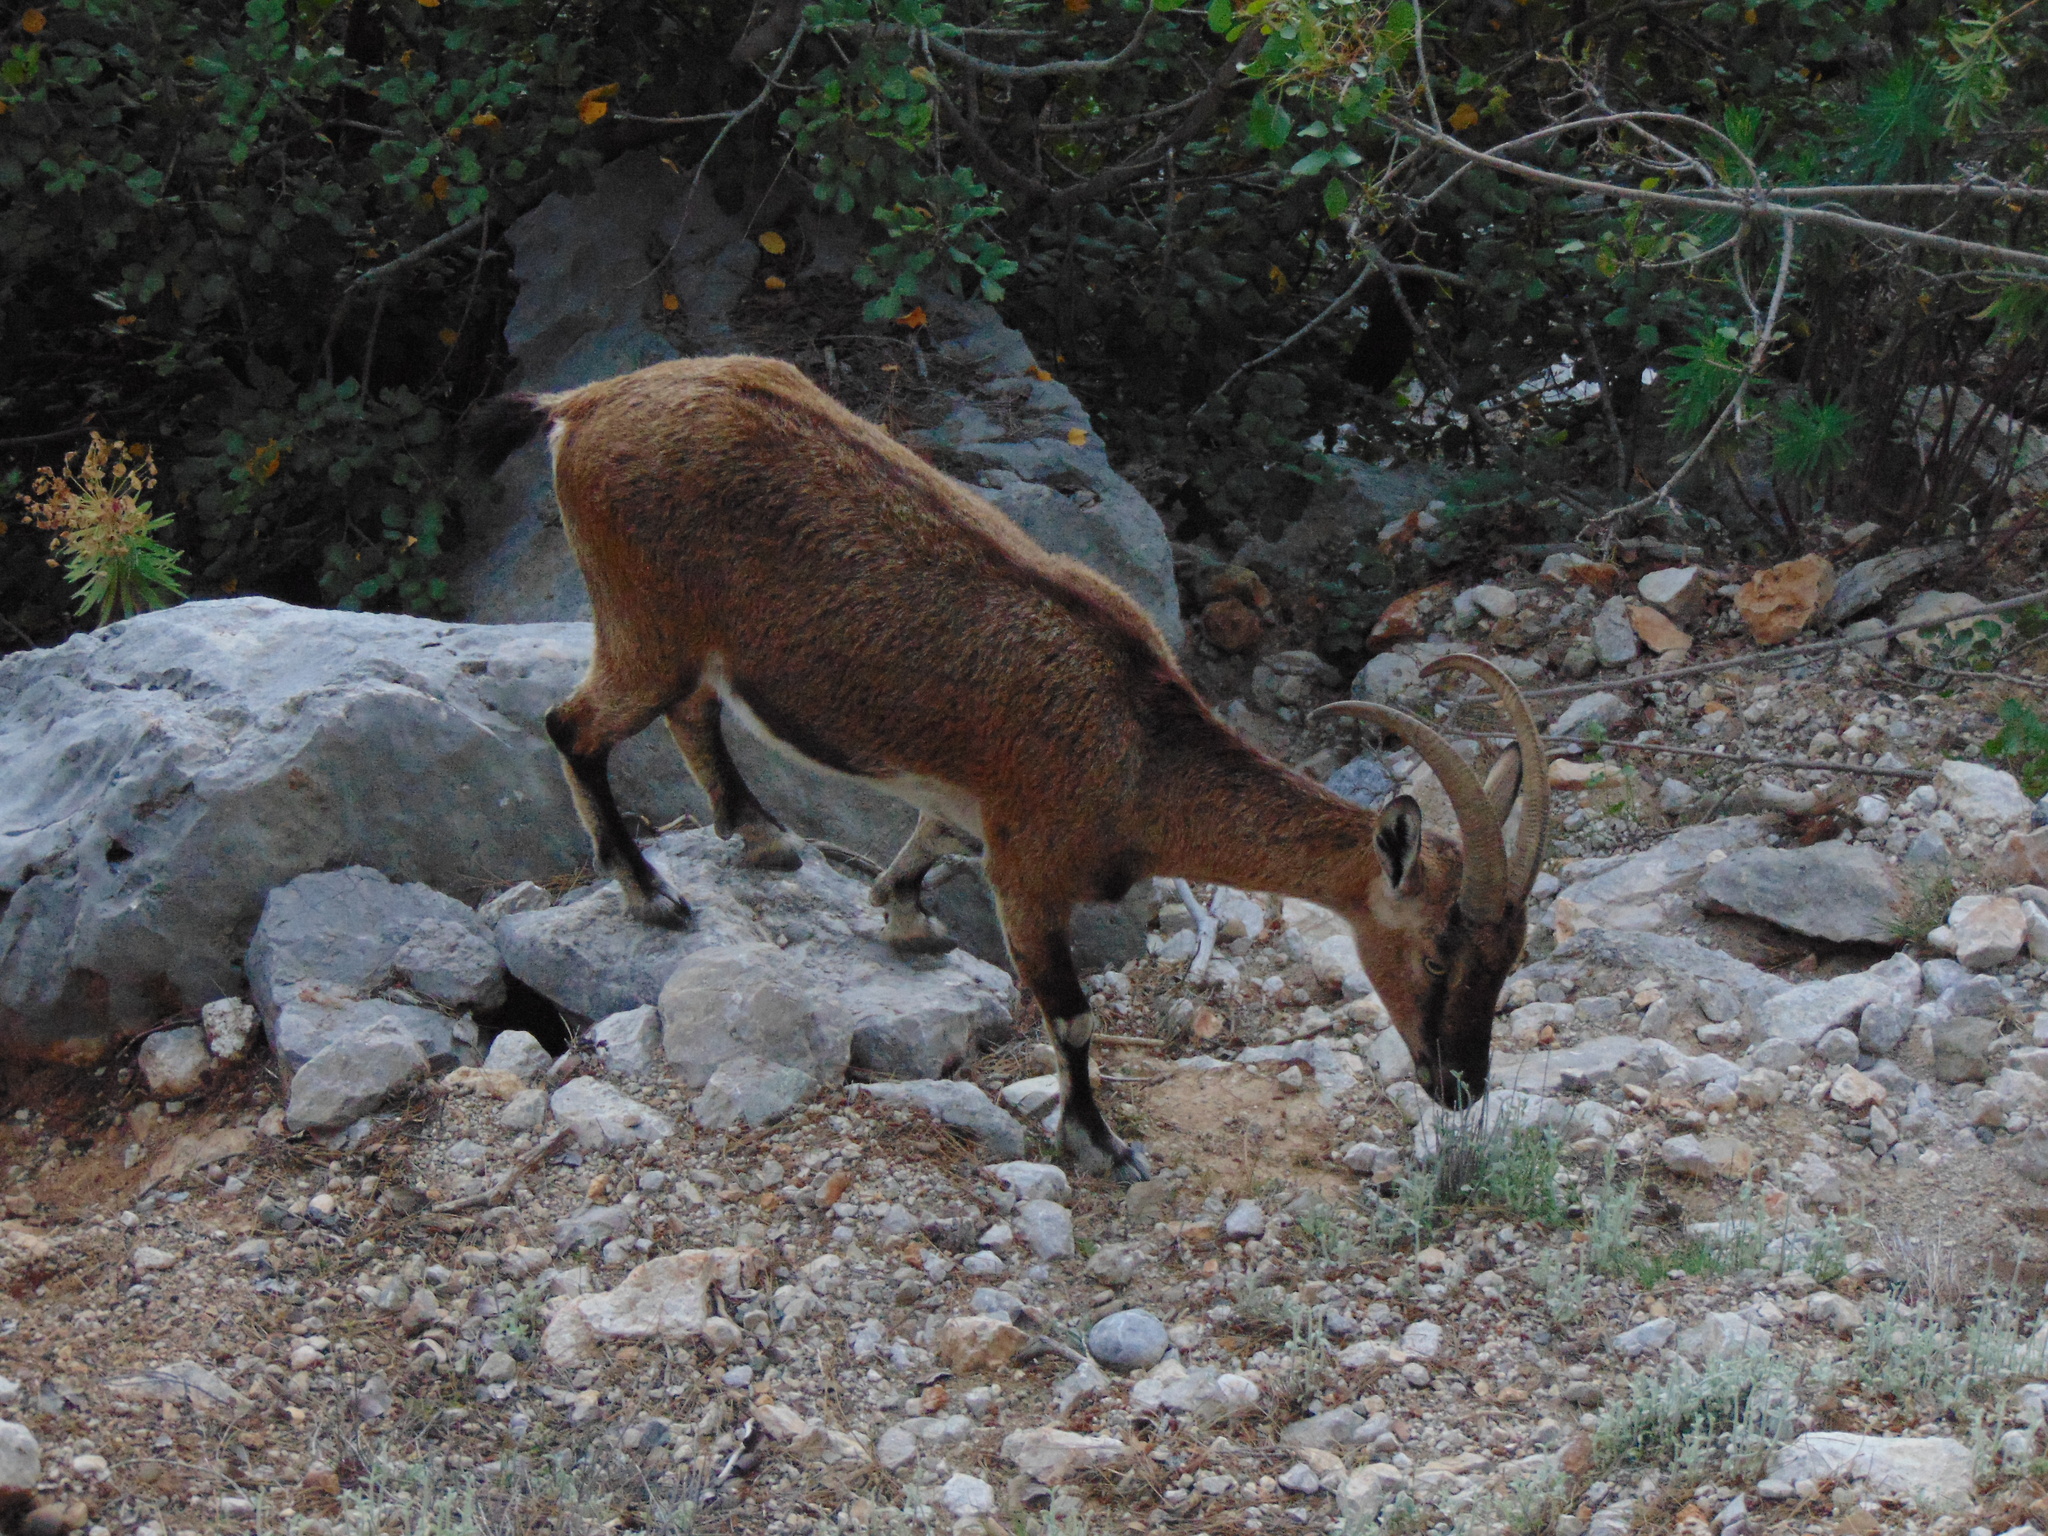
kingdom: Animalia
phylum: Chordata
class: Mammalia
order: Artiodactyla
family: Bovidae
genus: Capra
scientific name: Capra hircus
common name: Domestic goat
